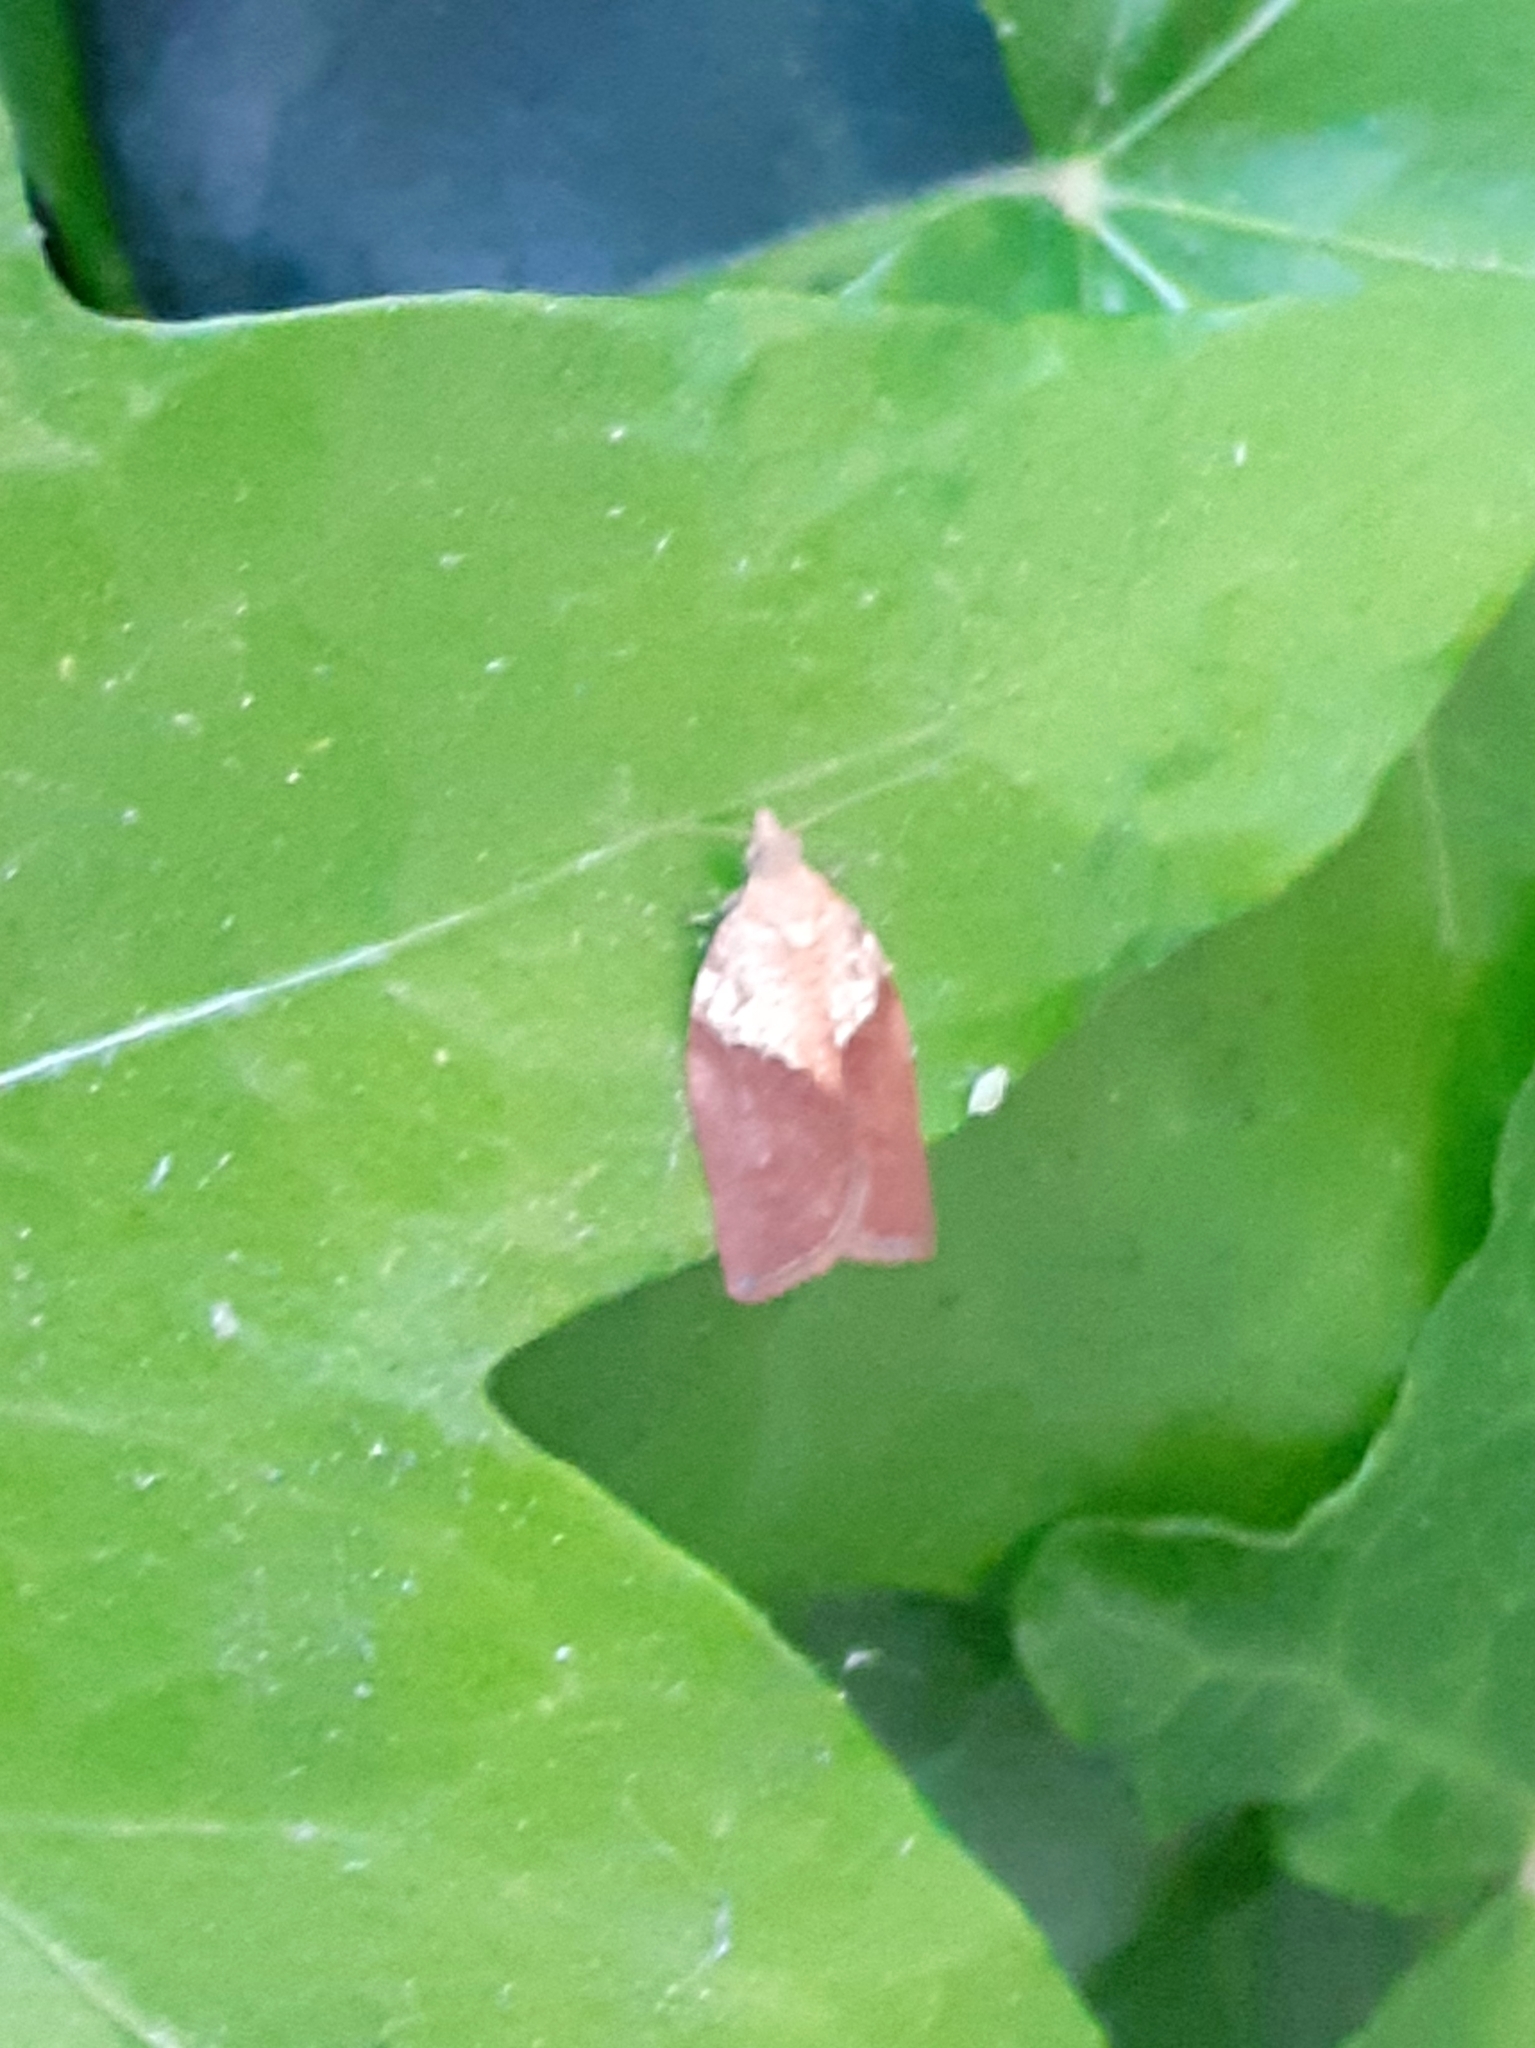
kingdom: Animalia
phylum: Arthropoda
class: Insecta
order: Lepidoptera
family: Tortricidae
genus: Epiphyas
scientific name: Epiphyas postvittana
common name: Light brown apple moth
